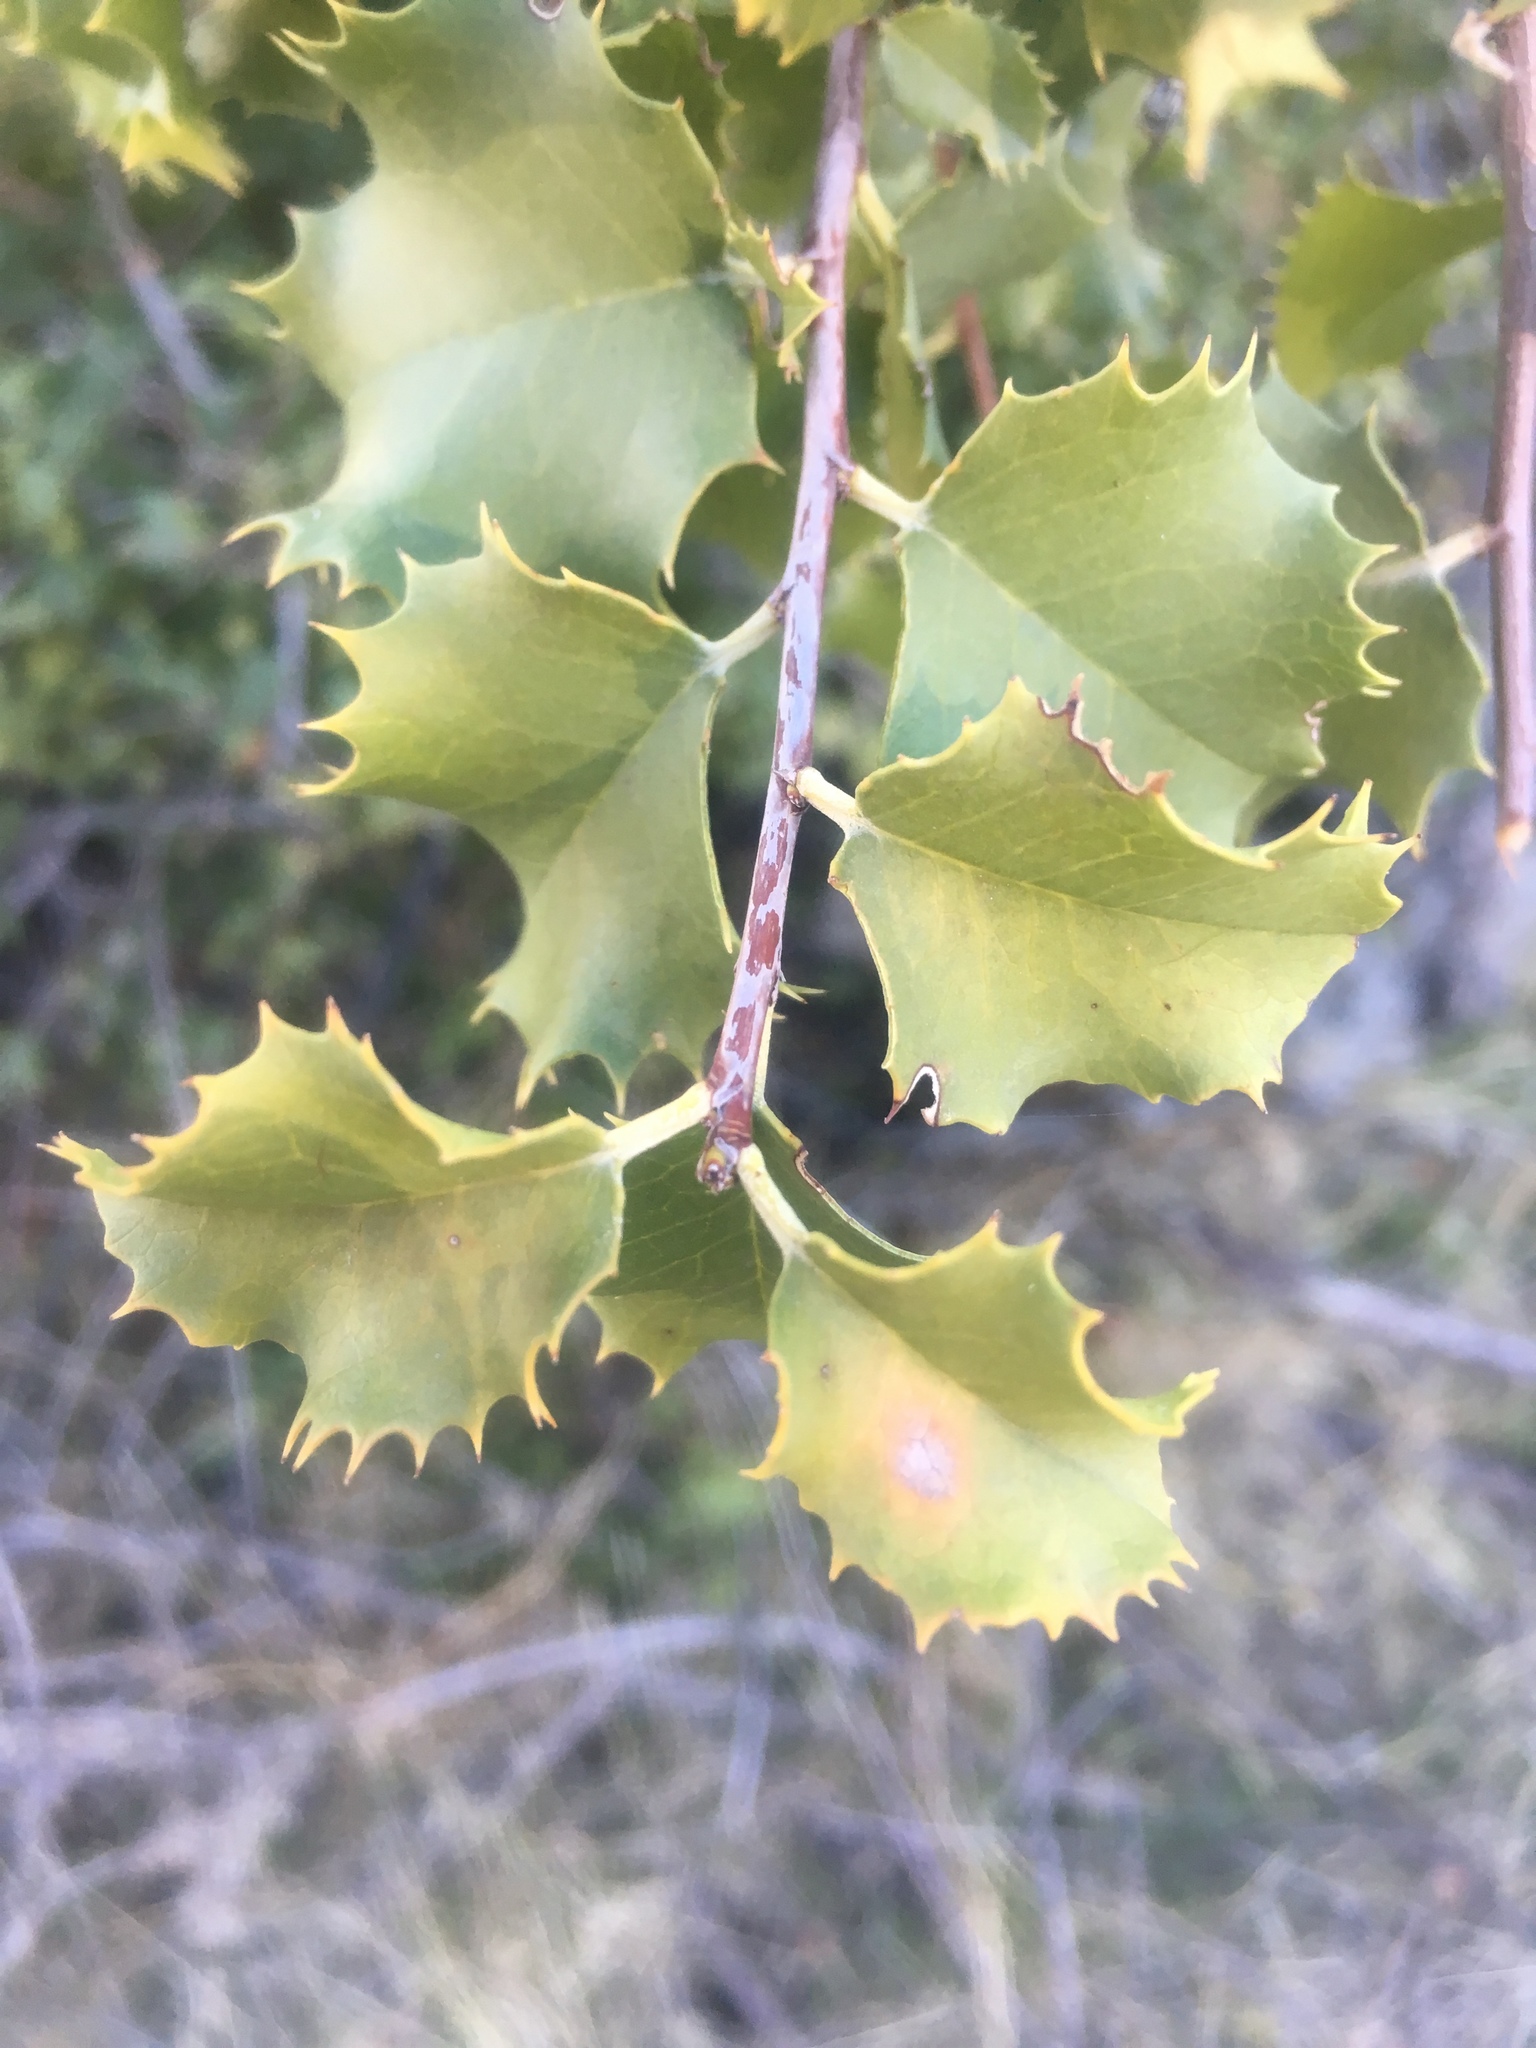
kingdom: Plantae
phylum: Tracheophyta
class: Magnoliopsida
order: Rosales
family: Rosaceae
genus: Prunus
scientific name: Prunus ilicifolia
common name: Hollyleaf cherry
